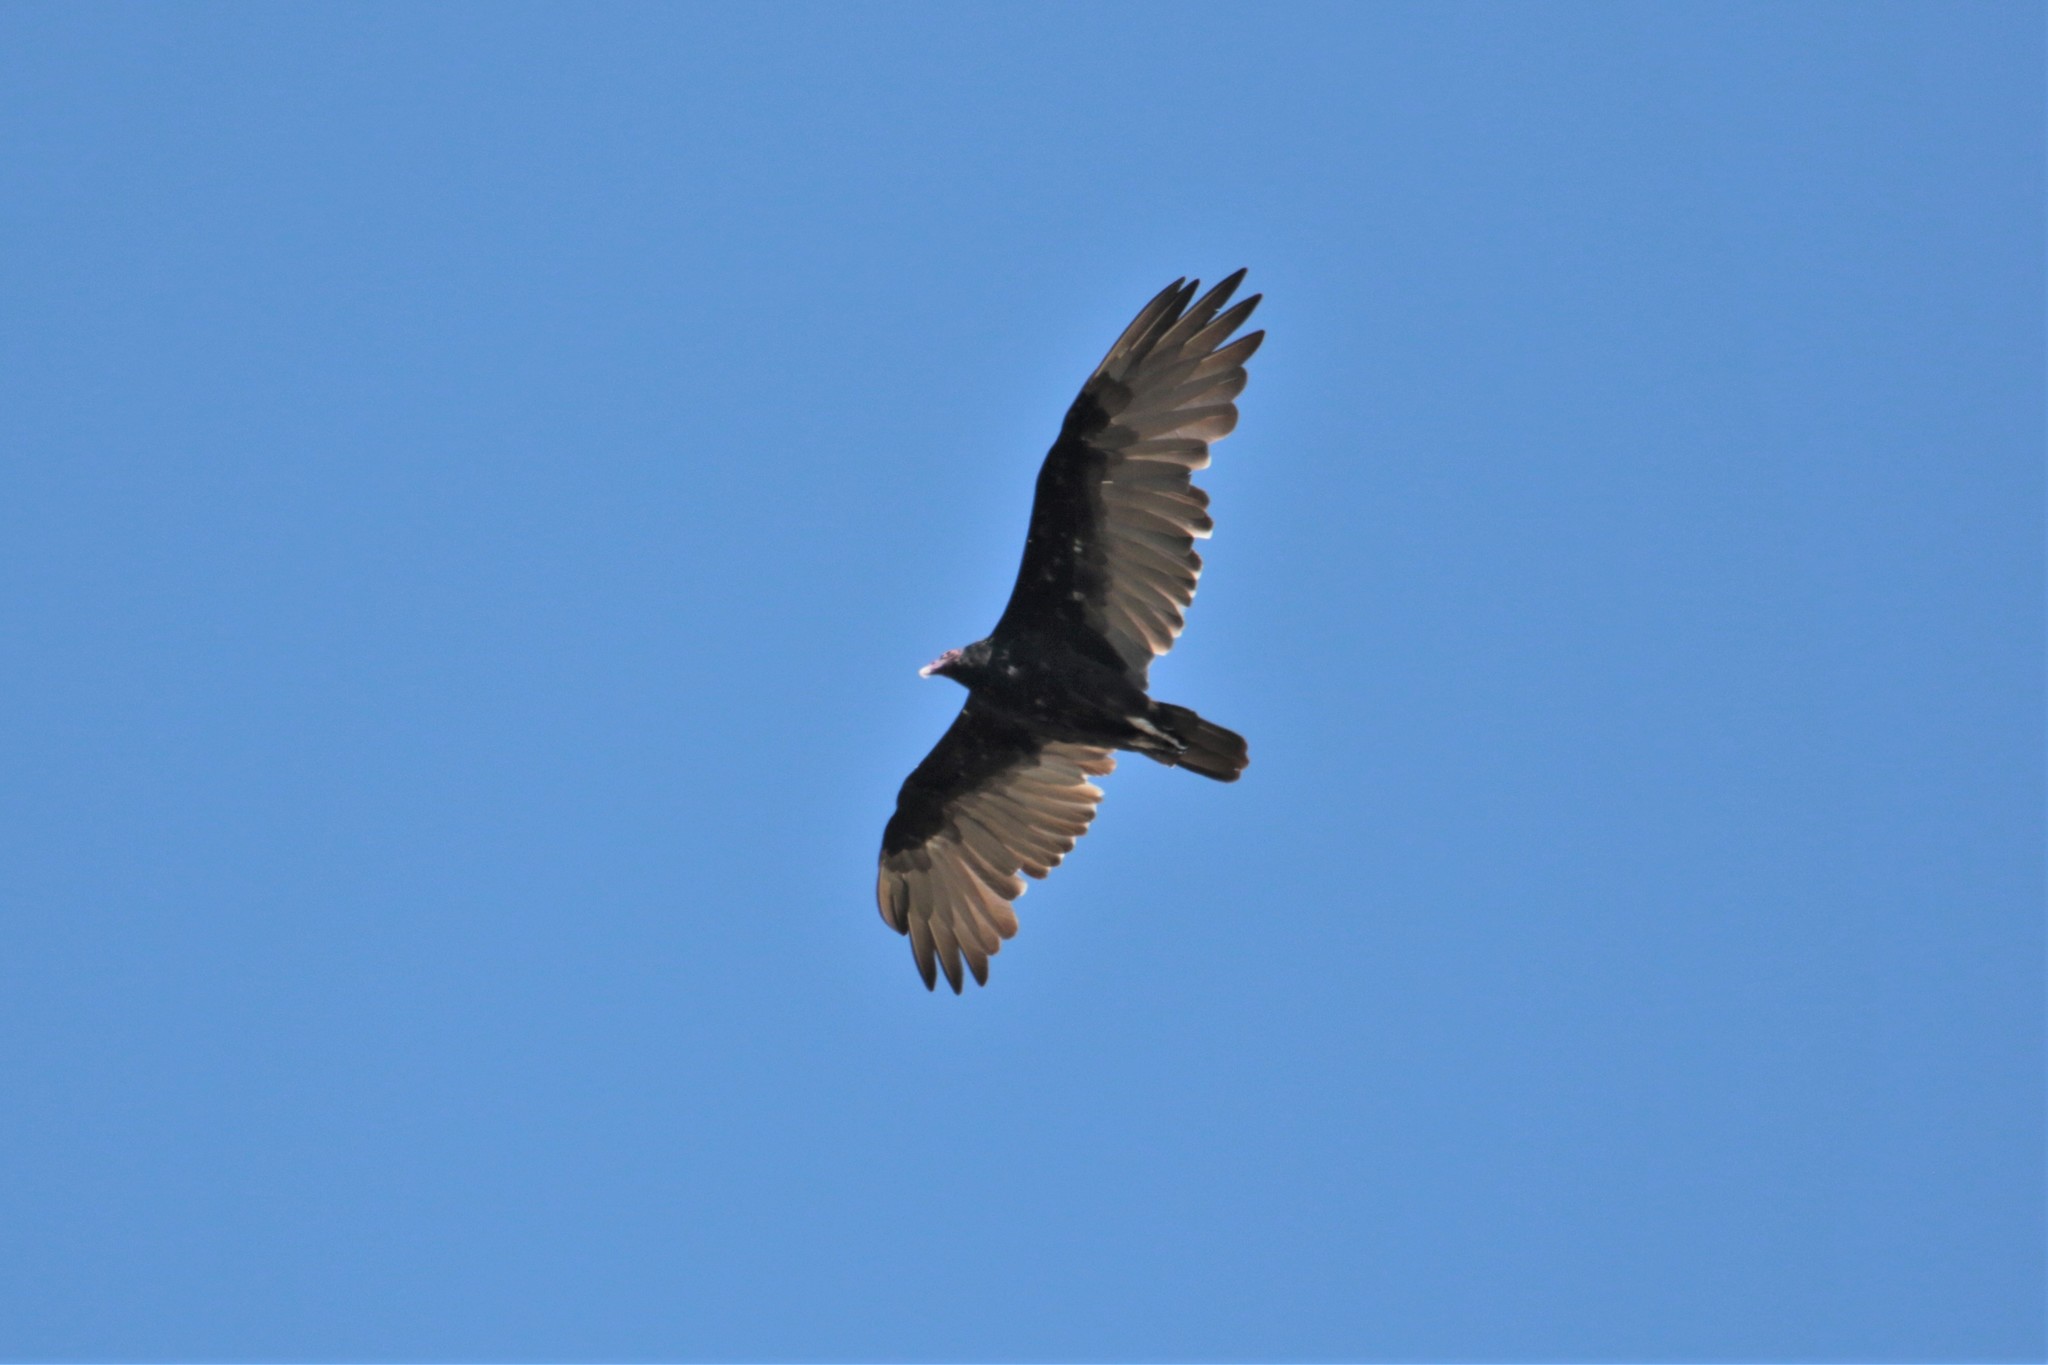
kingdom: Animalia
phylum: Chordata
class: Aves
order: Accipitriformes
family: Cathartidae
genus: Cathartes
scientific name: Cathartes aura
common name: Turkey vulture
